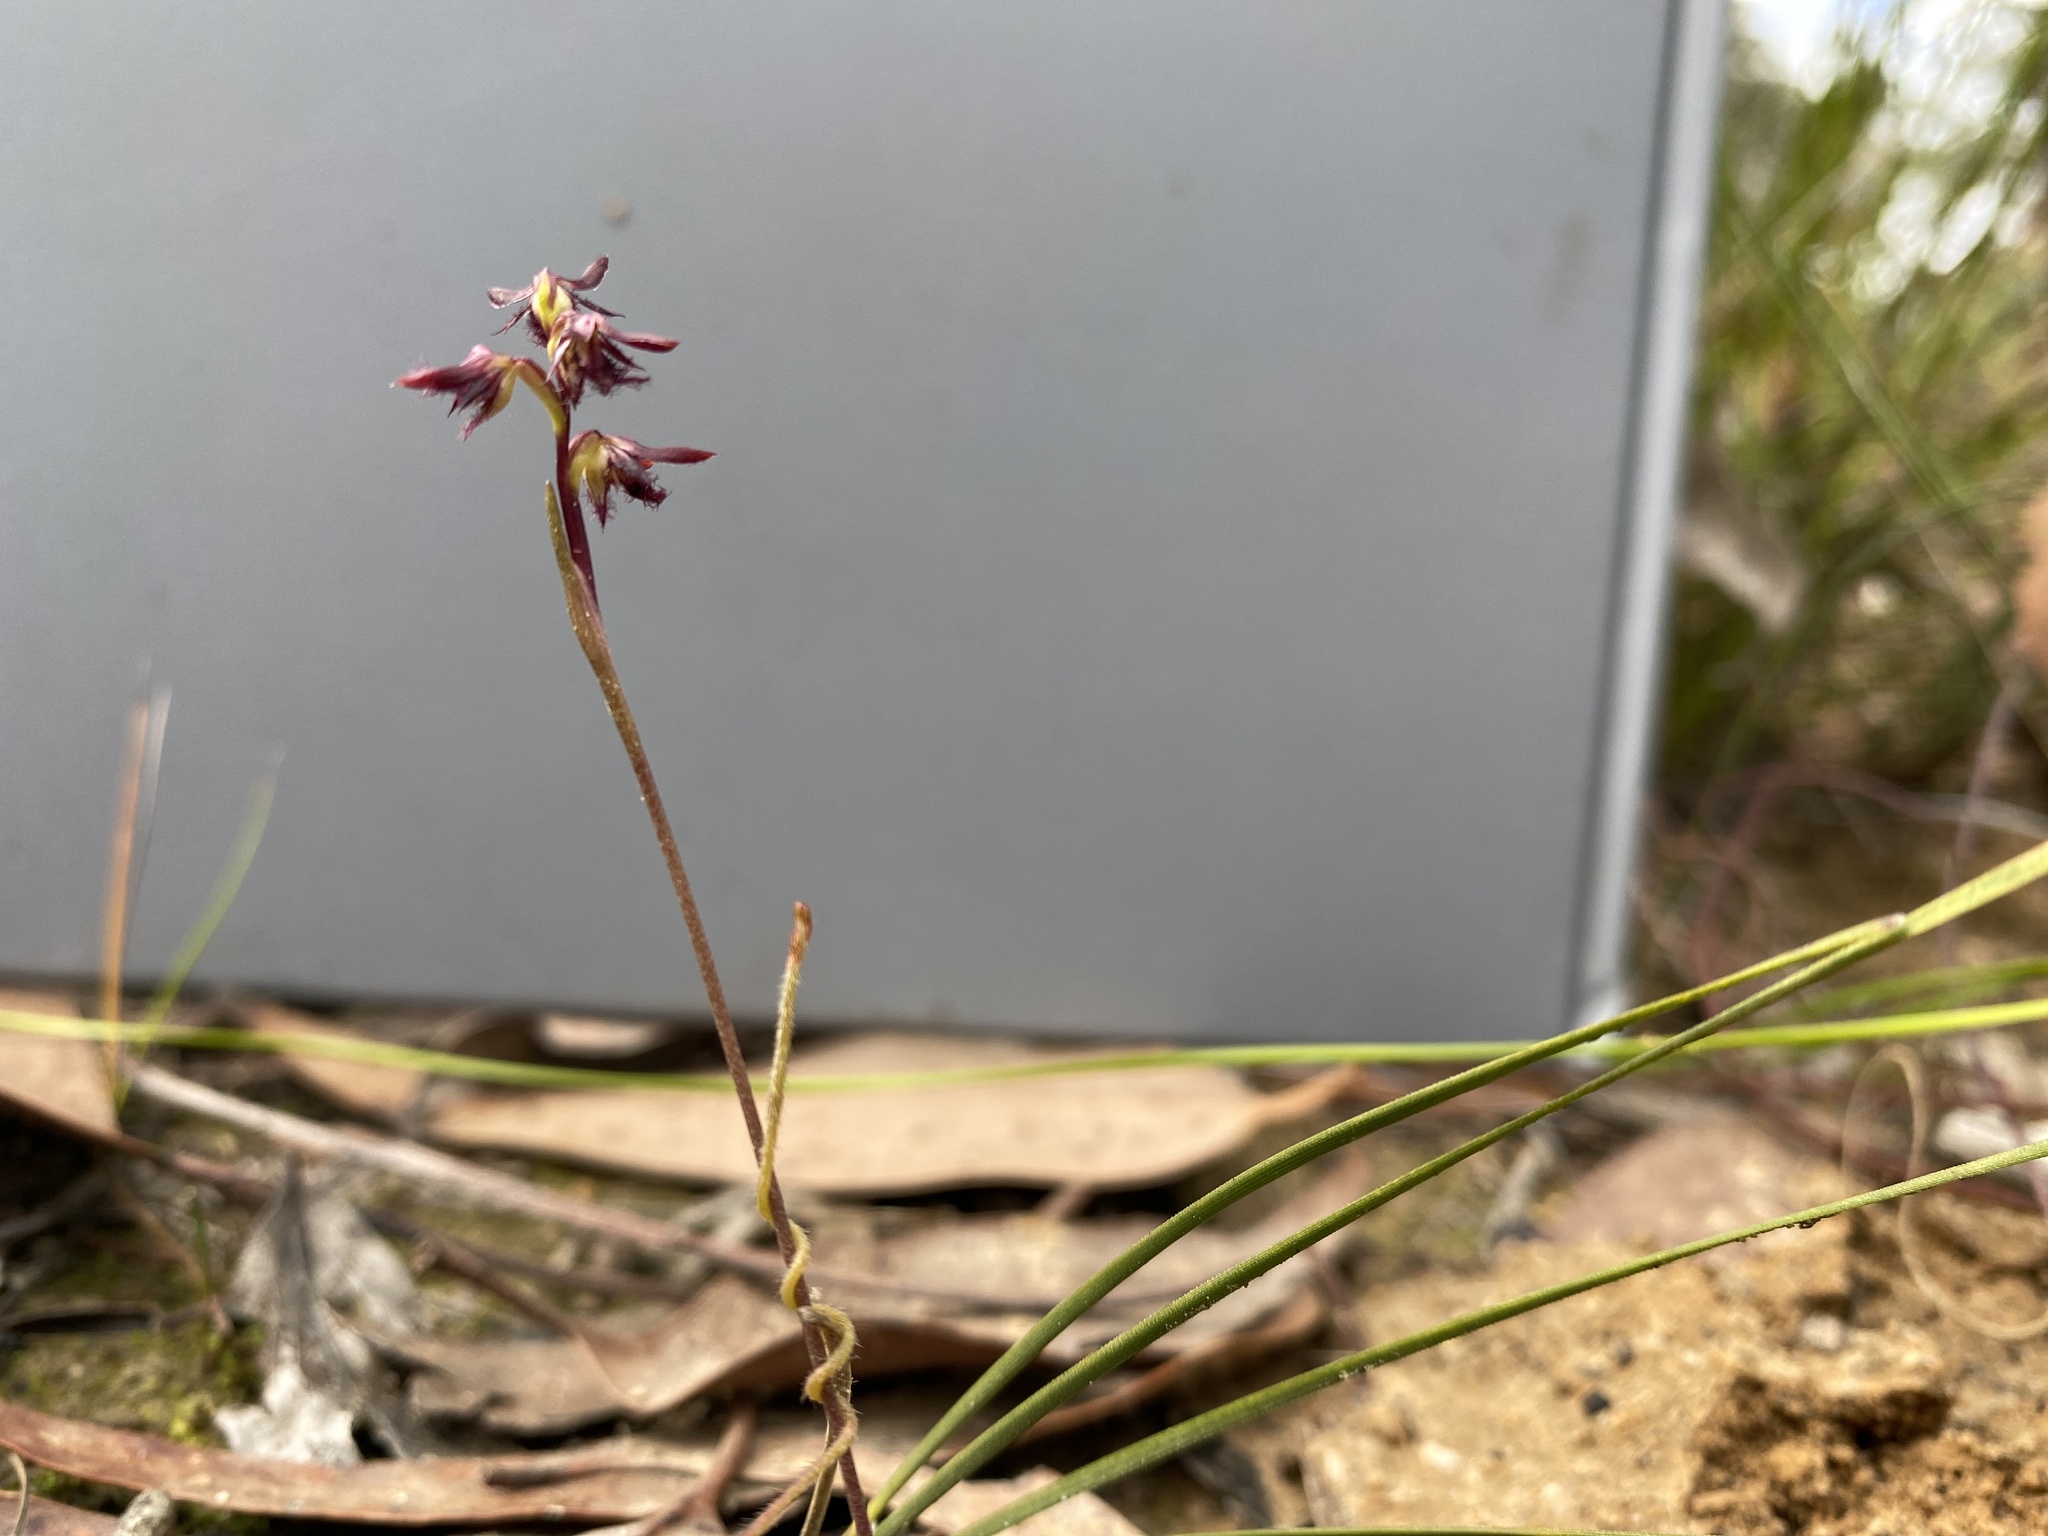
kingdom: Plantae
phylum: Tracheophyta
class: Liliopsida
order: Asparagales
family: Orchidaceae
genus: Genoplesium
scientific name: Genoplesium morrisii
